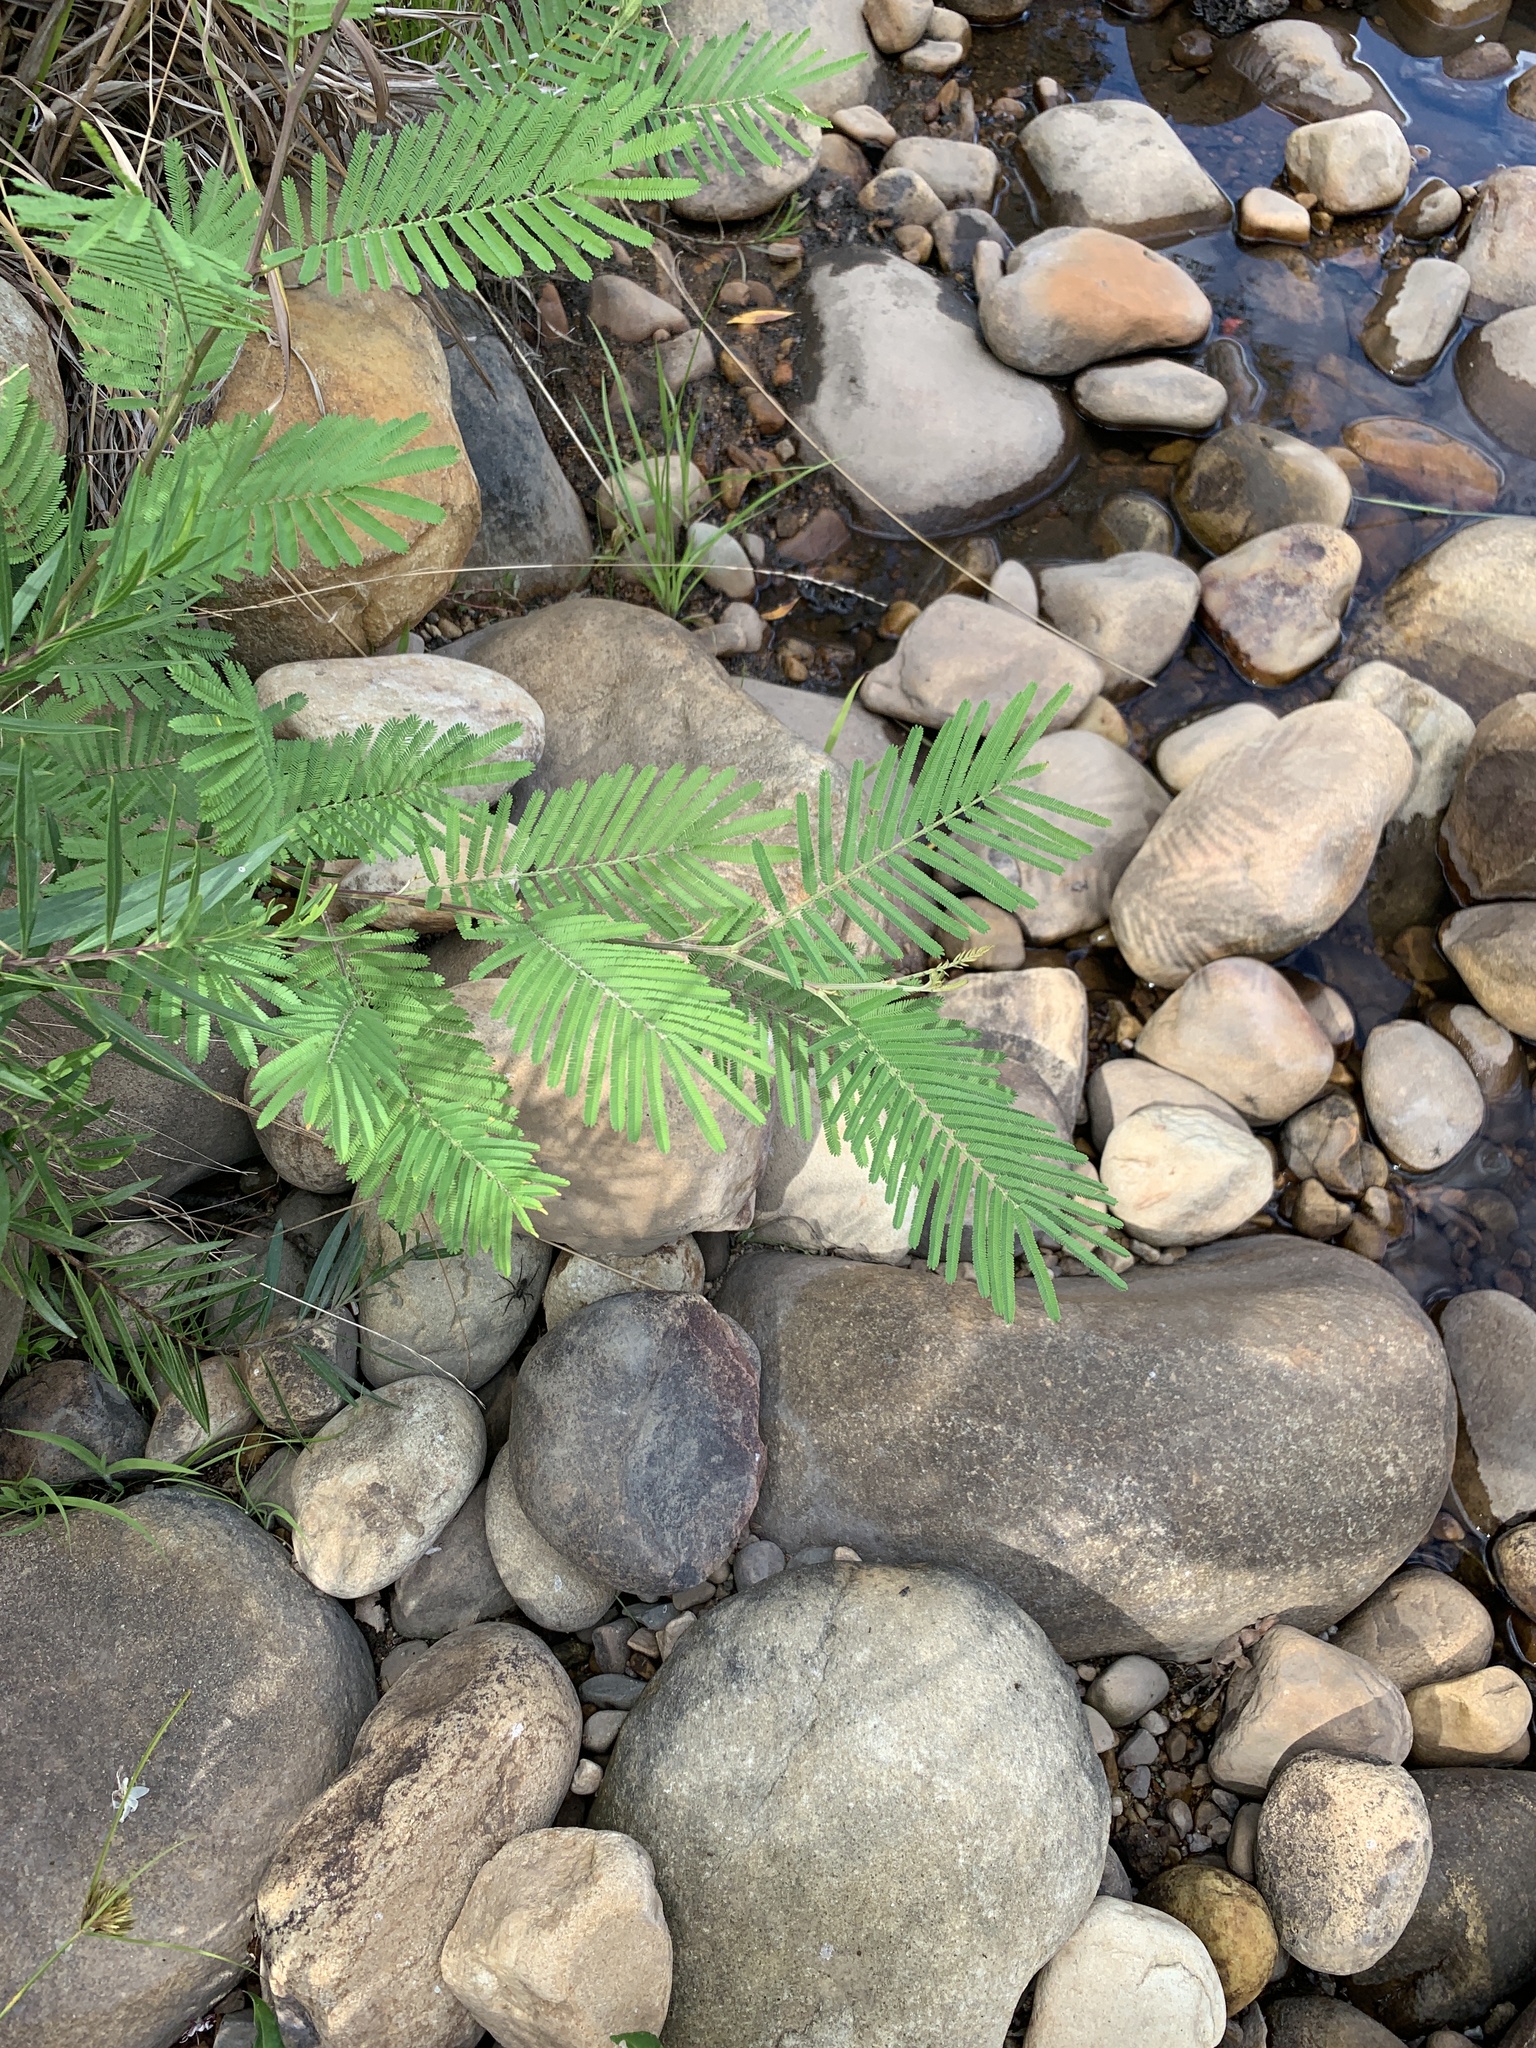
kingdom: Plantae
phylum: Tracheophyta
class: Magnoliopsida
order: Fabales
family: Fabaceae
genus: Acacia
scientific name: Acacia mearnsii
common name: Black wattle
